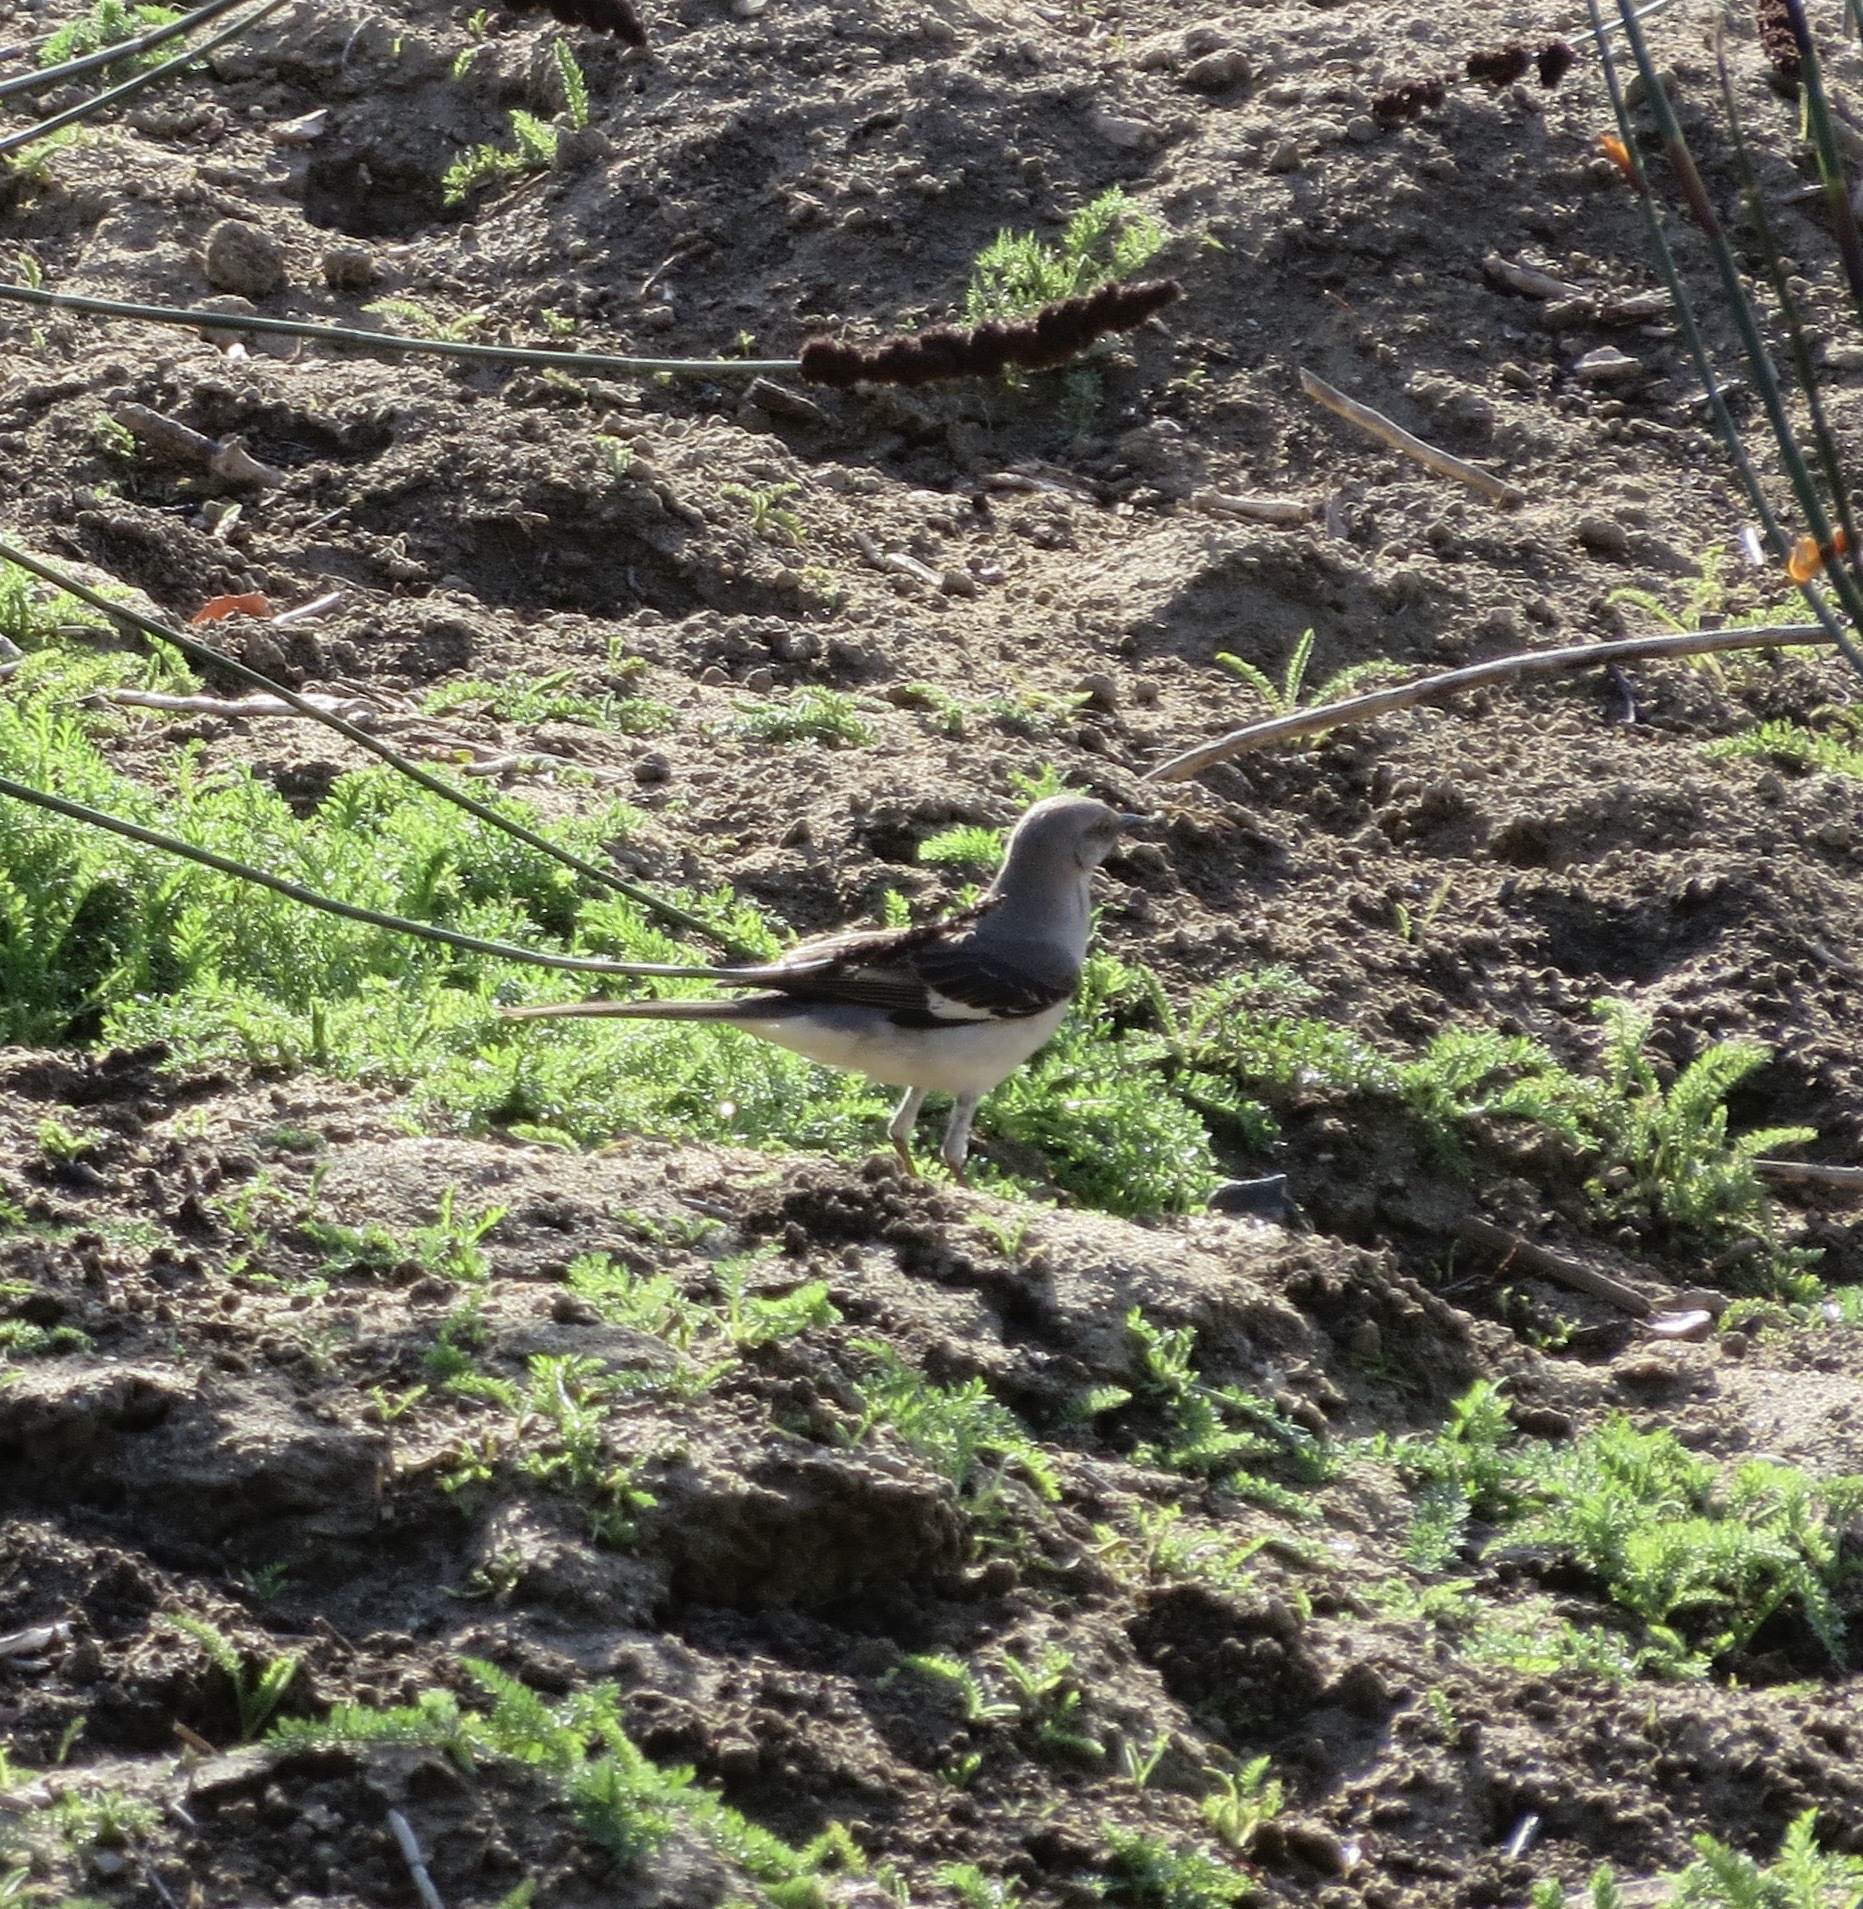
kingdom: Animalia
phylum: Chordata
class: Aves
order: Passeriformes
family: Mimidae
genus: Mimus
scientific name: Mimus polyglottos
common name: Northern mockingbird
